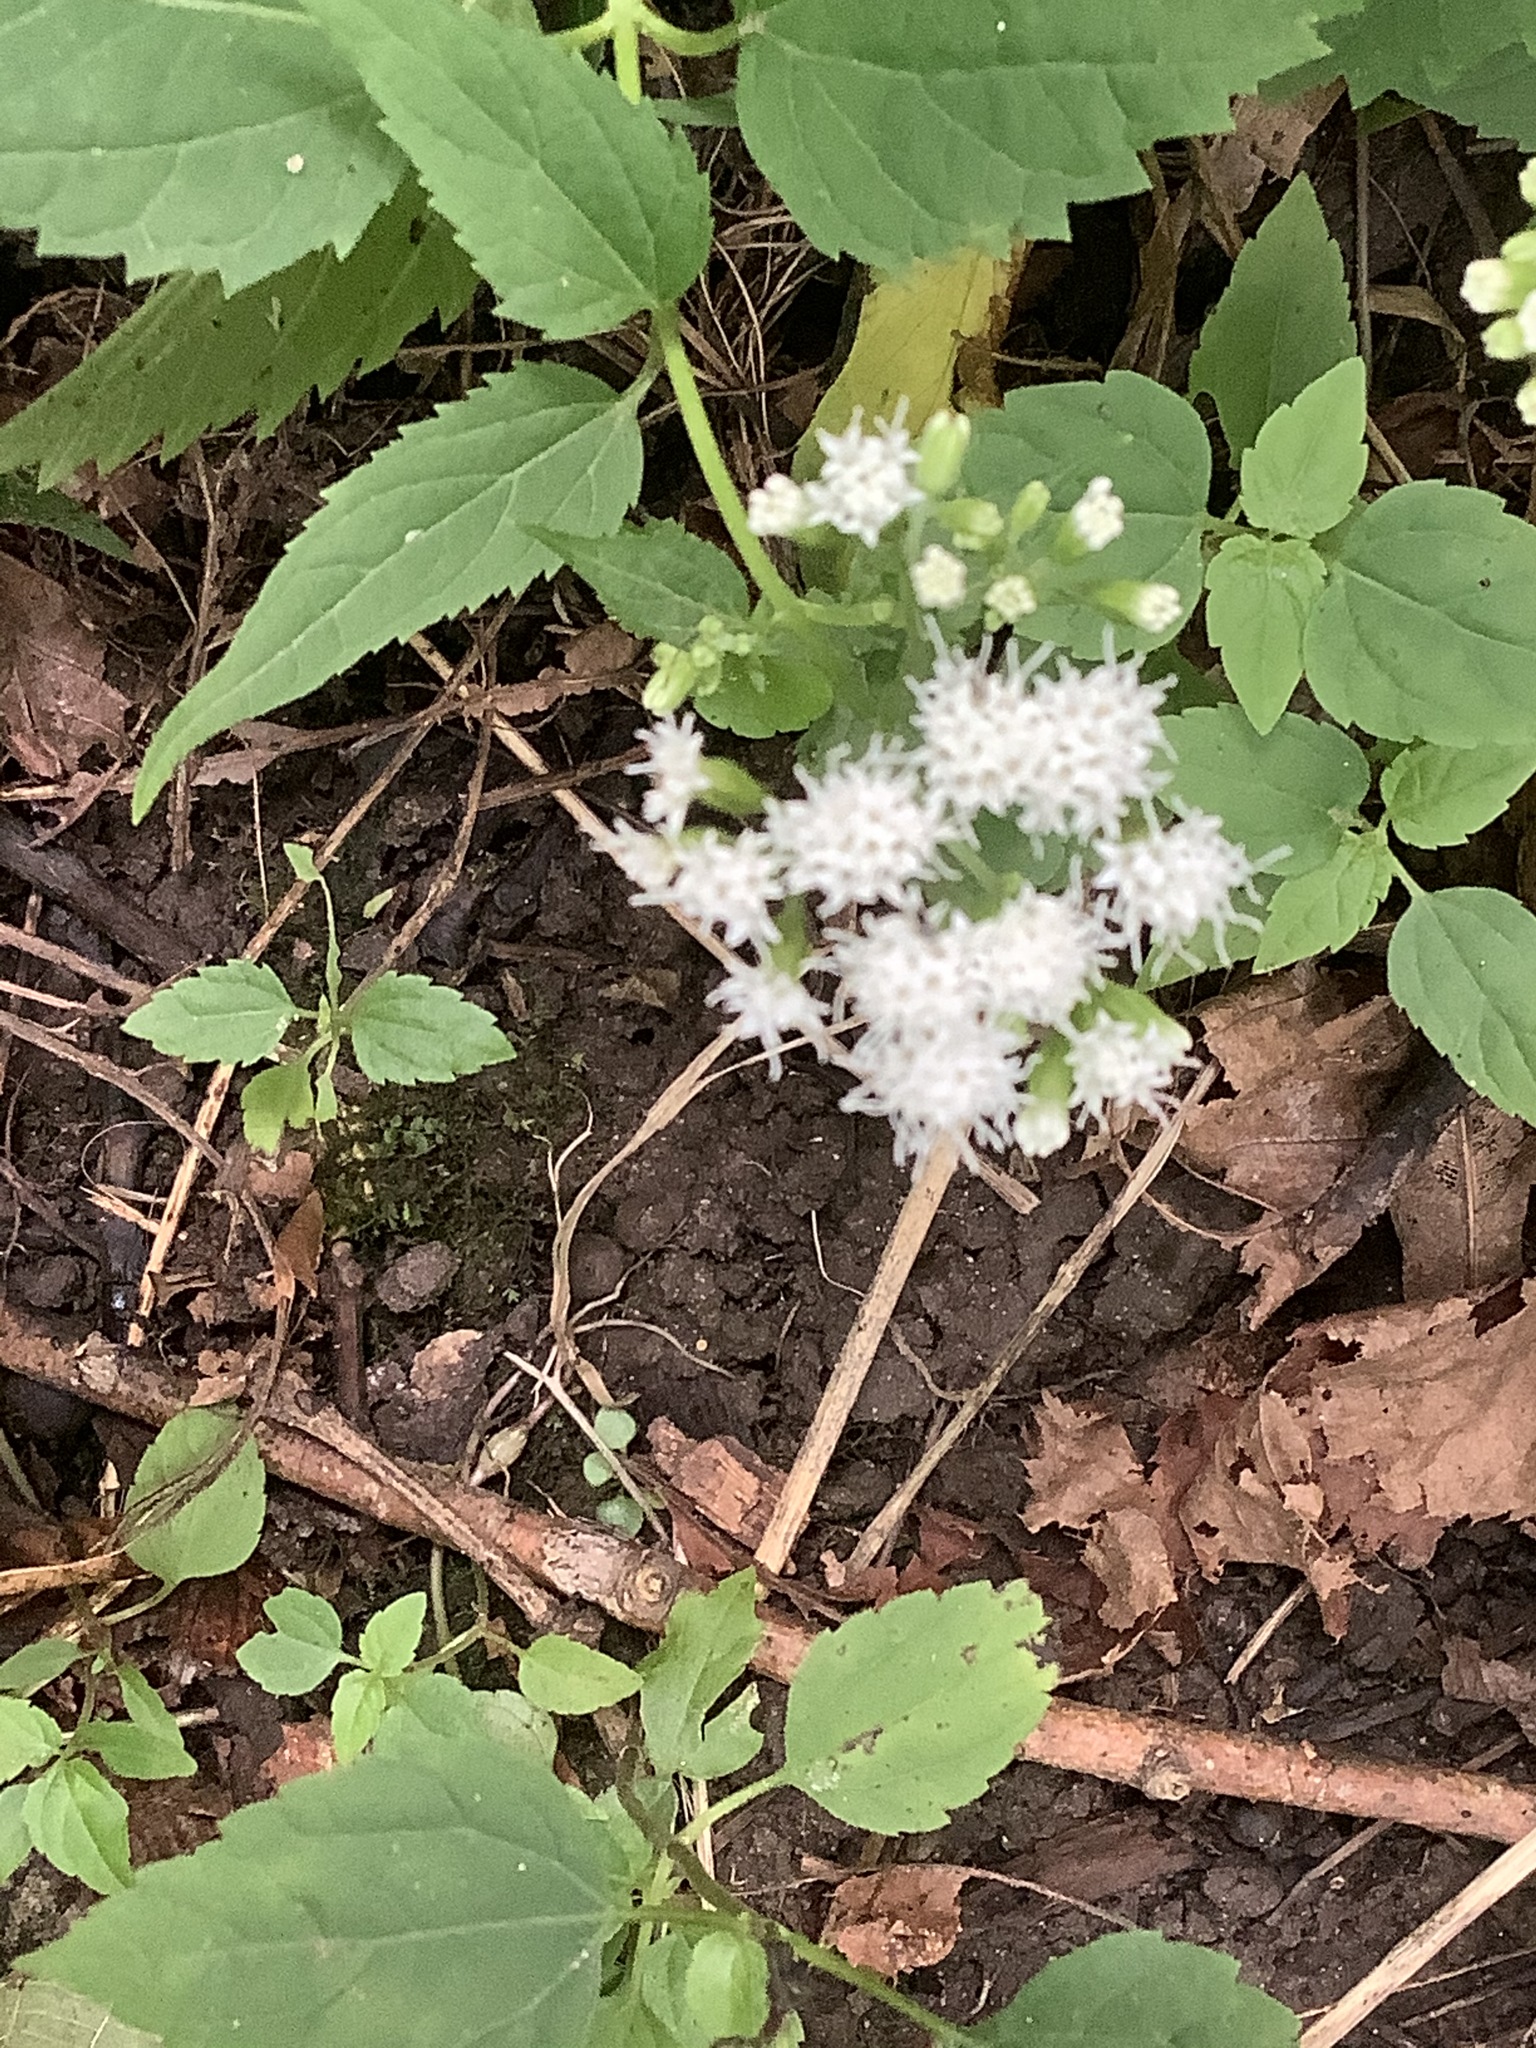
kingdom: Plantae
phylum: Tracheophyta
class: Magnoliopsida
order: Asterales
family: Asteraceae
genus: Ageratina
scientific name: Ageratina altissima
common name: White snakeroot
